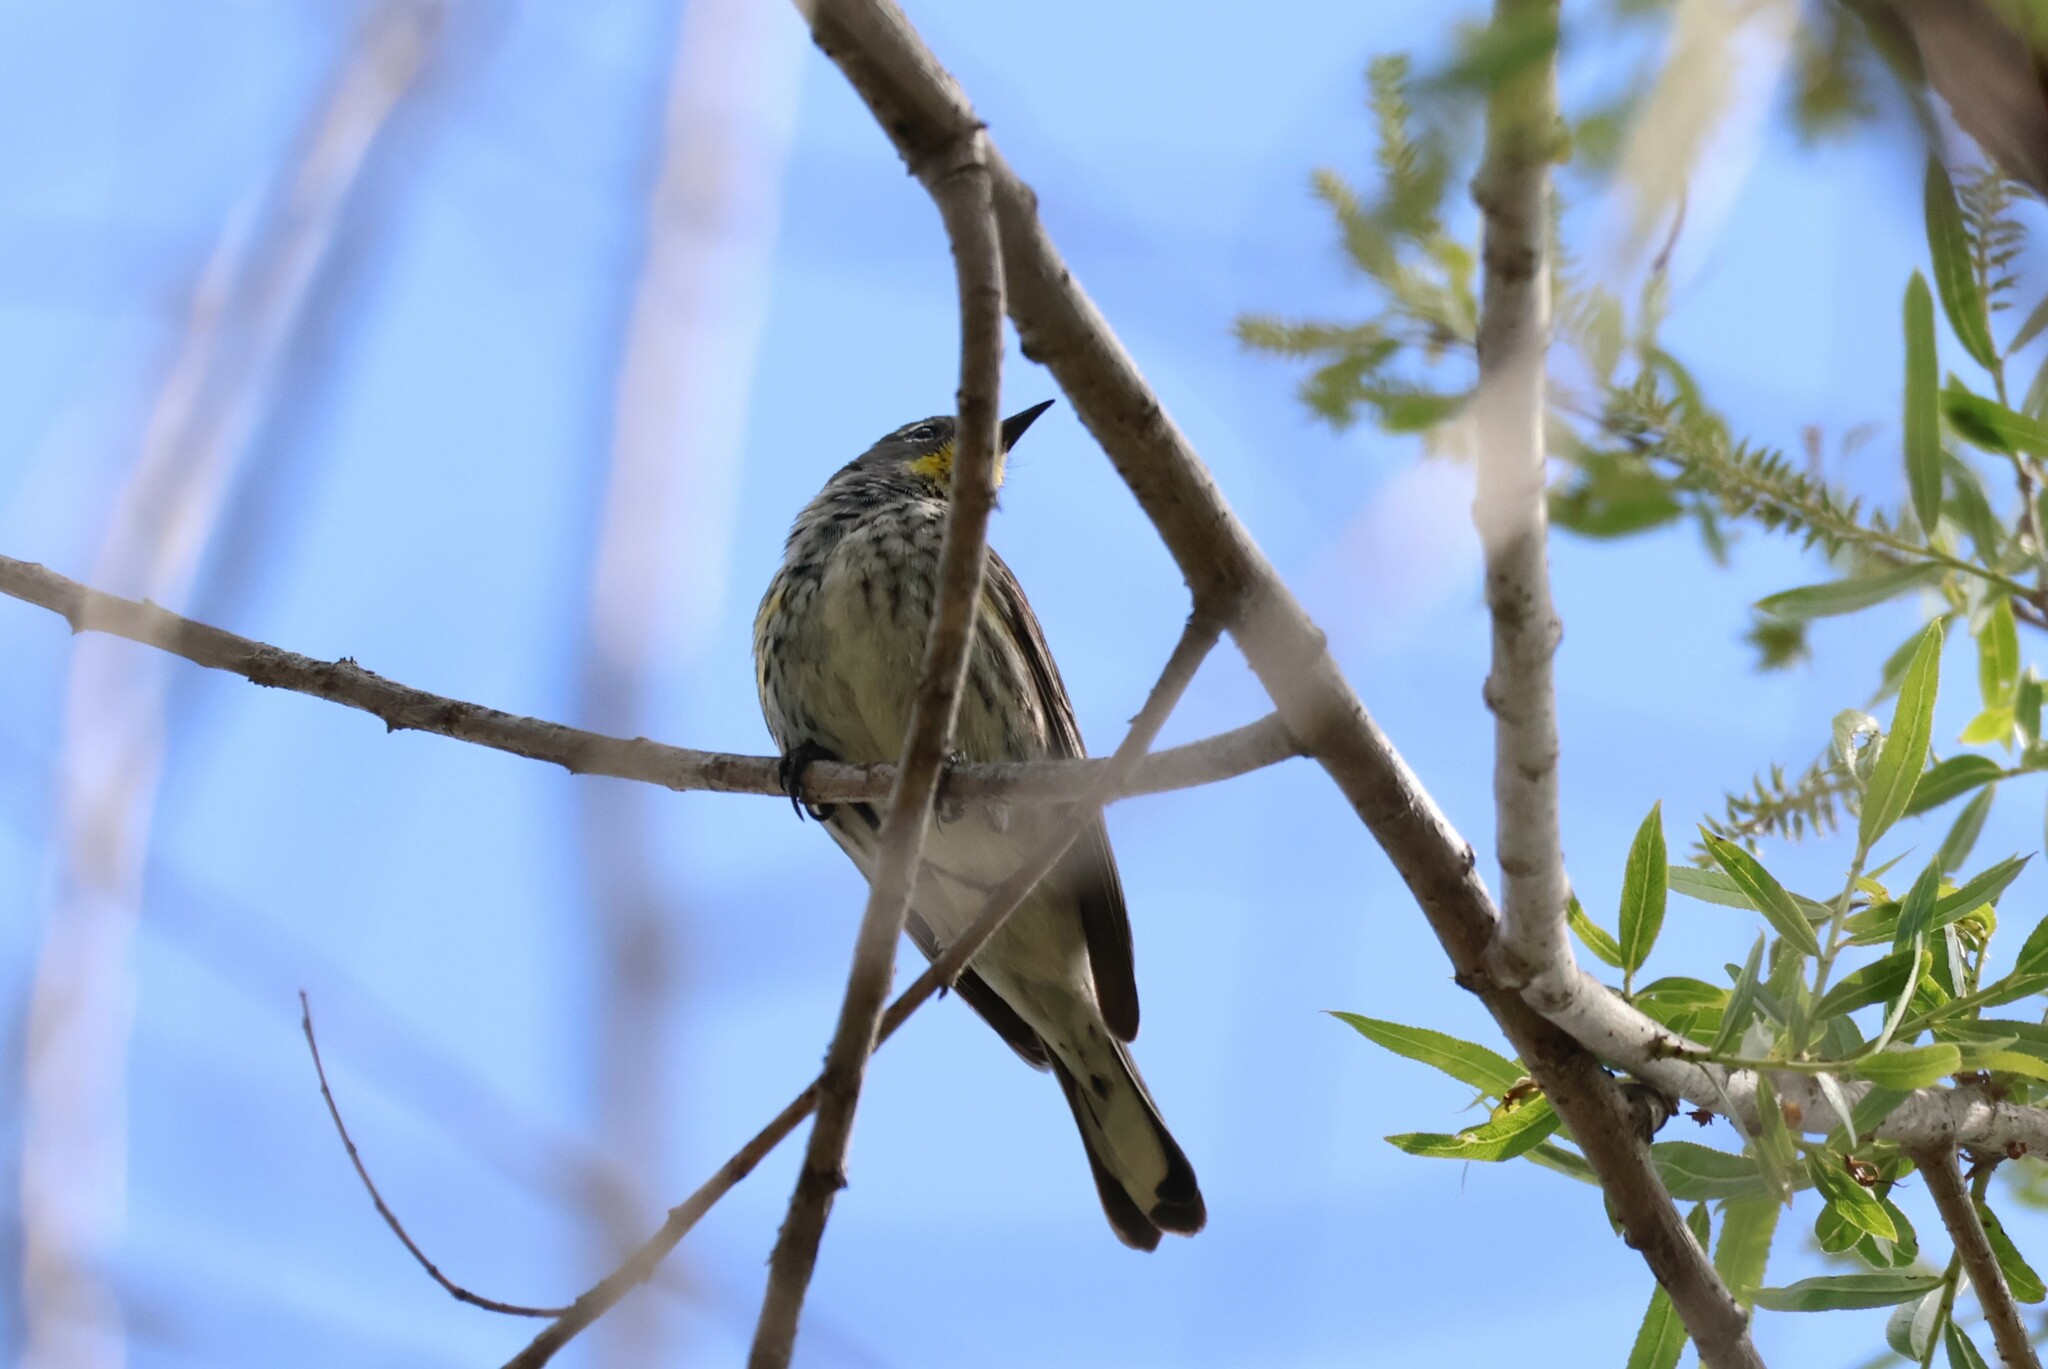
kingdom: Animalia
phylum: Chordata
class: Aves
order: Passeriformes
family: Parulidae
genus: Setophaga
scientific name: Setophaga auduboni
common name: Audubon's warbler
